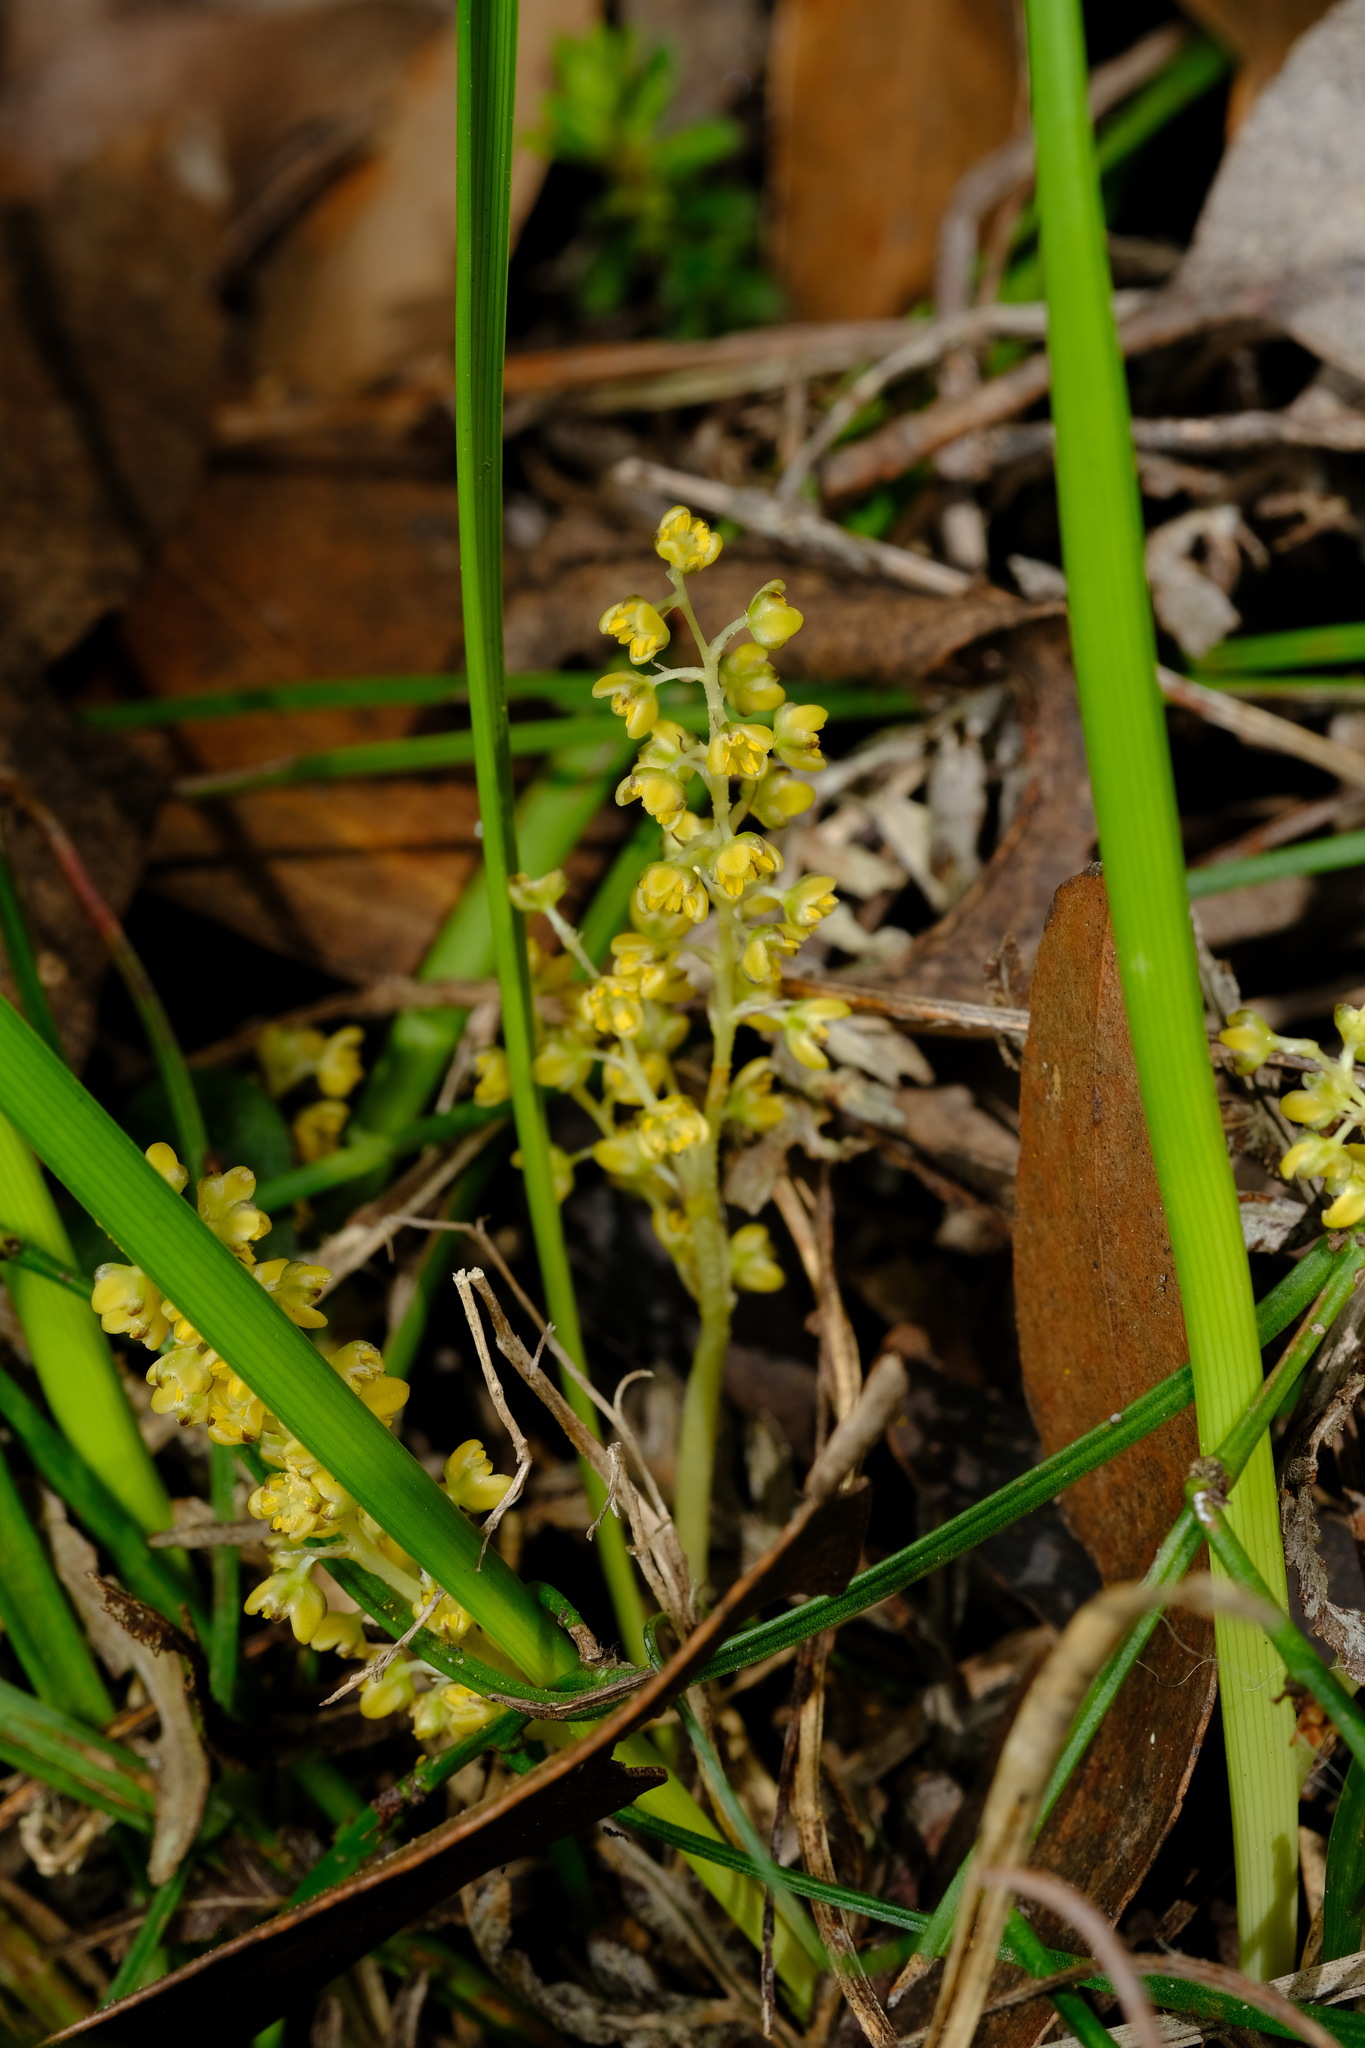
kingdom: Plantae
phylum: Tracheophyta
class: Liliopsida
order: Asparagales
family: Asparagaceae
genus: Lomandra
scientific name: Lomandra filiformis
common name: Wattle mat-rush
